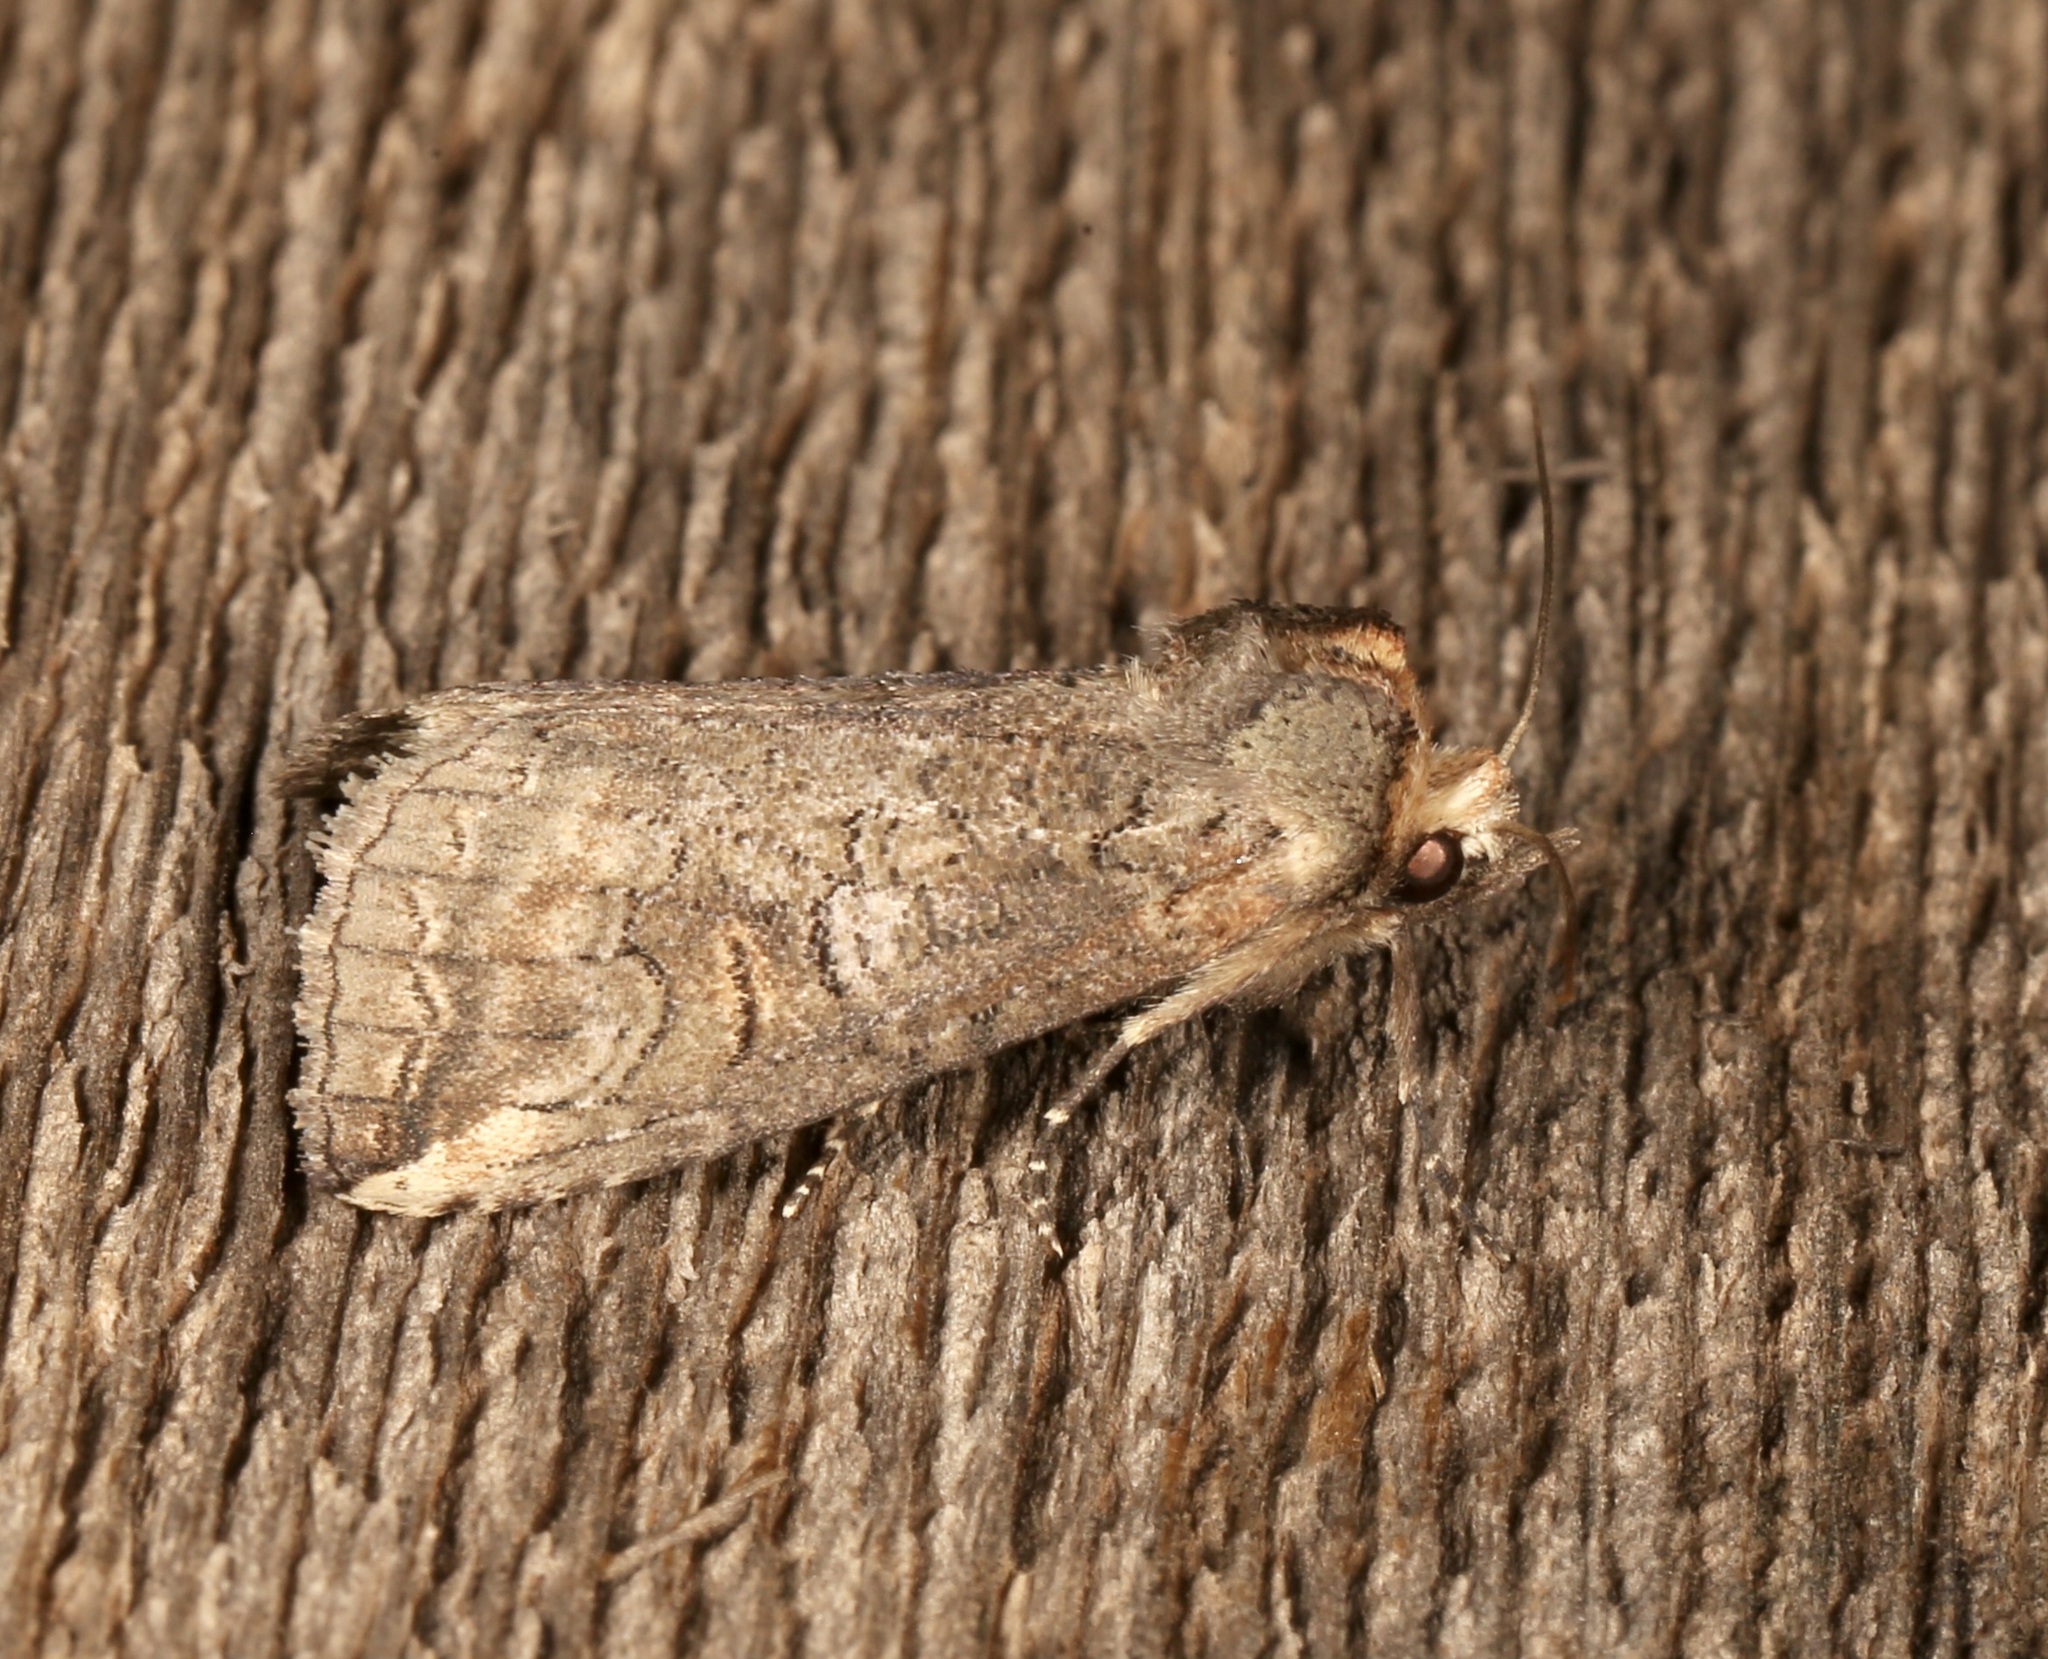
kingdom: Animalia
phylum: Arthropoda
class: Insecta
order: Lepidoptera
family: Notodontidae
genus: Elasmia
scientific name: Elasmia packardii
